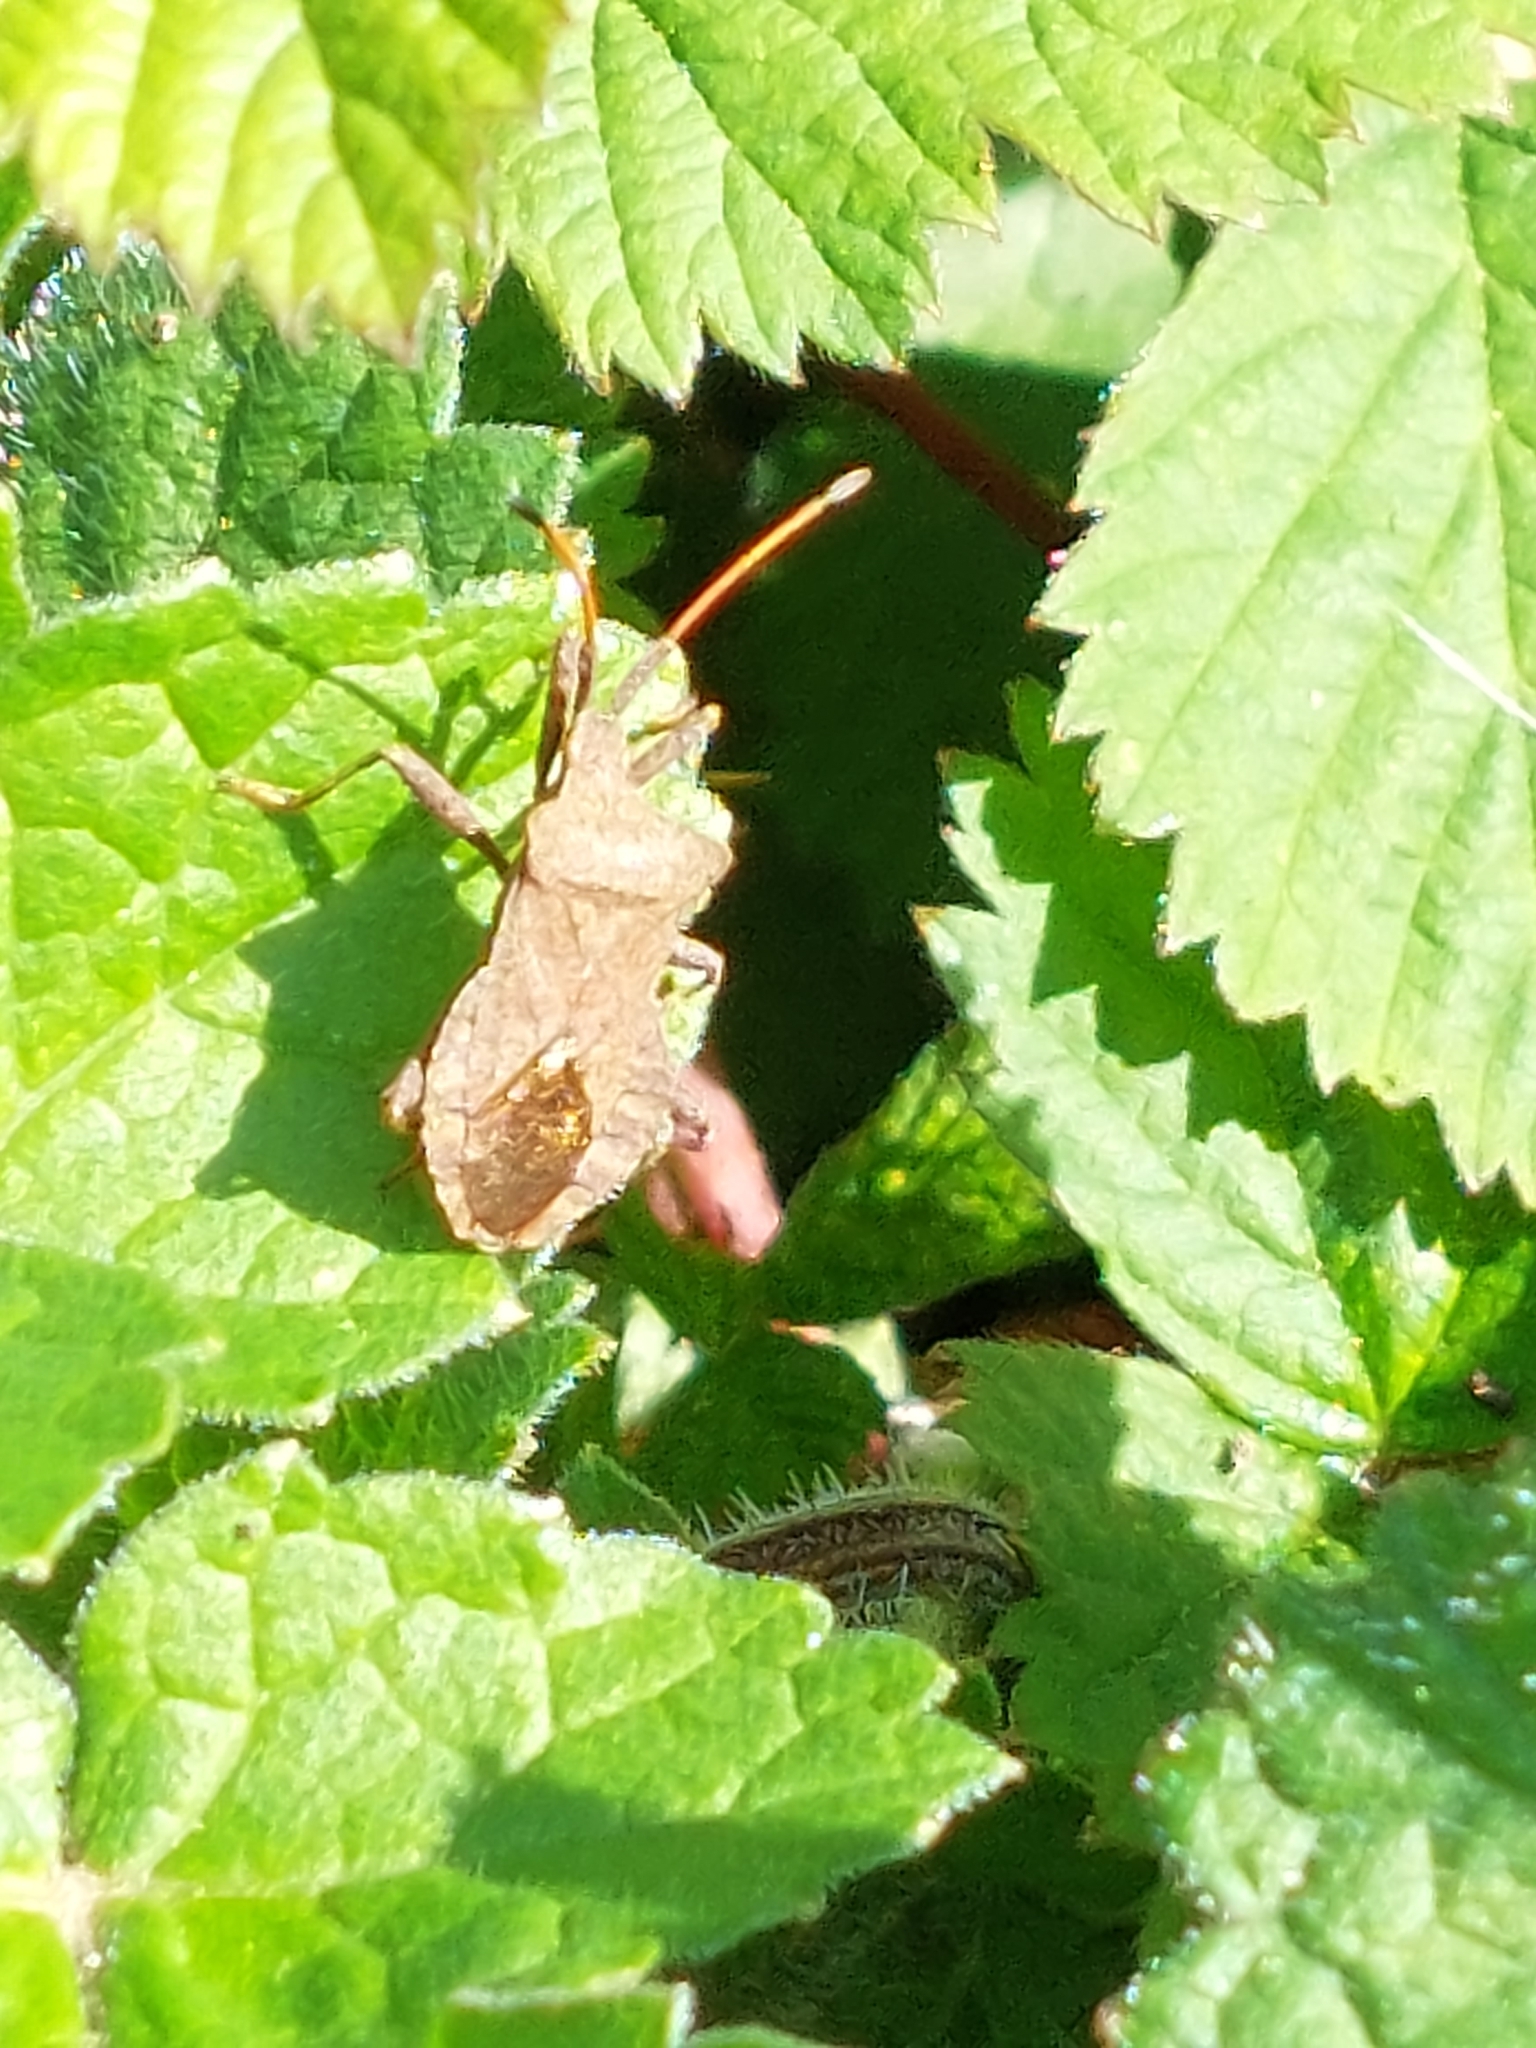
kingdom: Animalia
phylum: Arthropoda
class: Insecta
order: Hemiptera
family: Coreidae
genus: Coreus
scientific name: Coreus marginatus
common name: Dock bug
